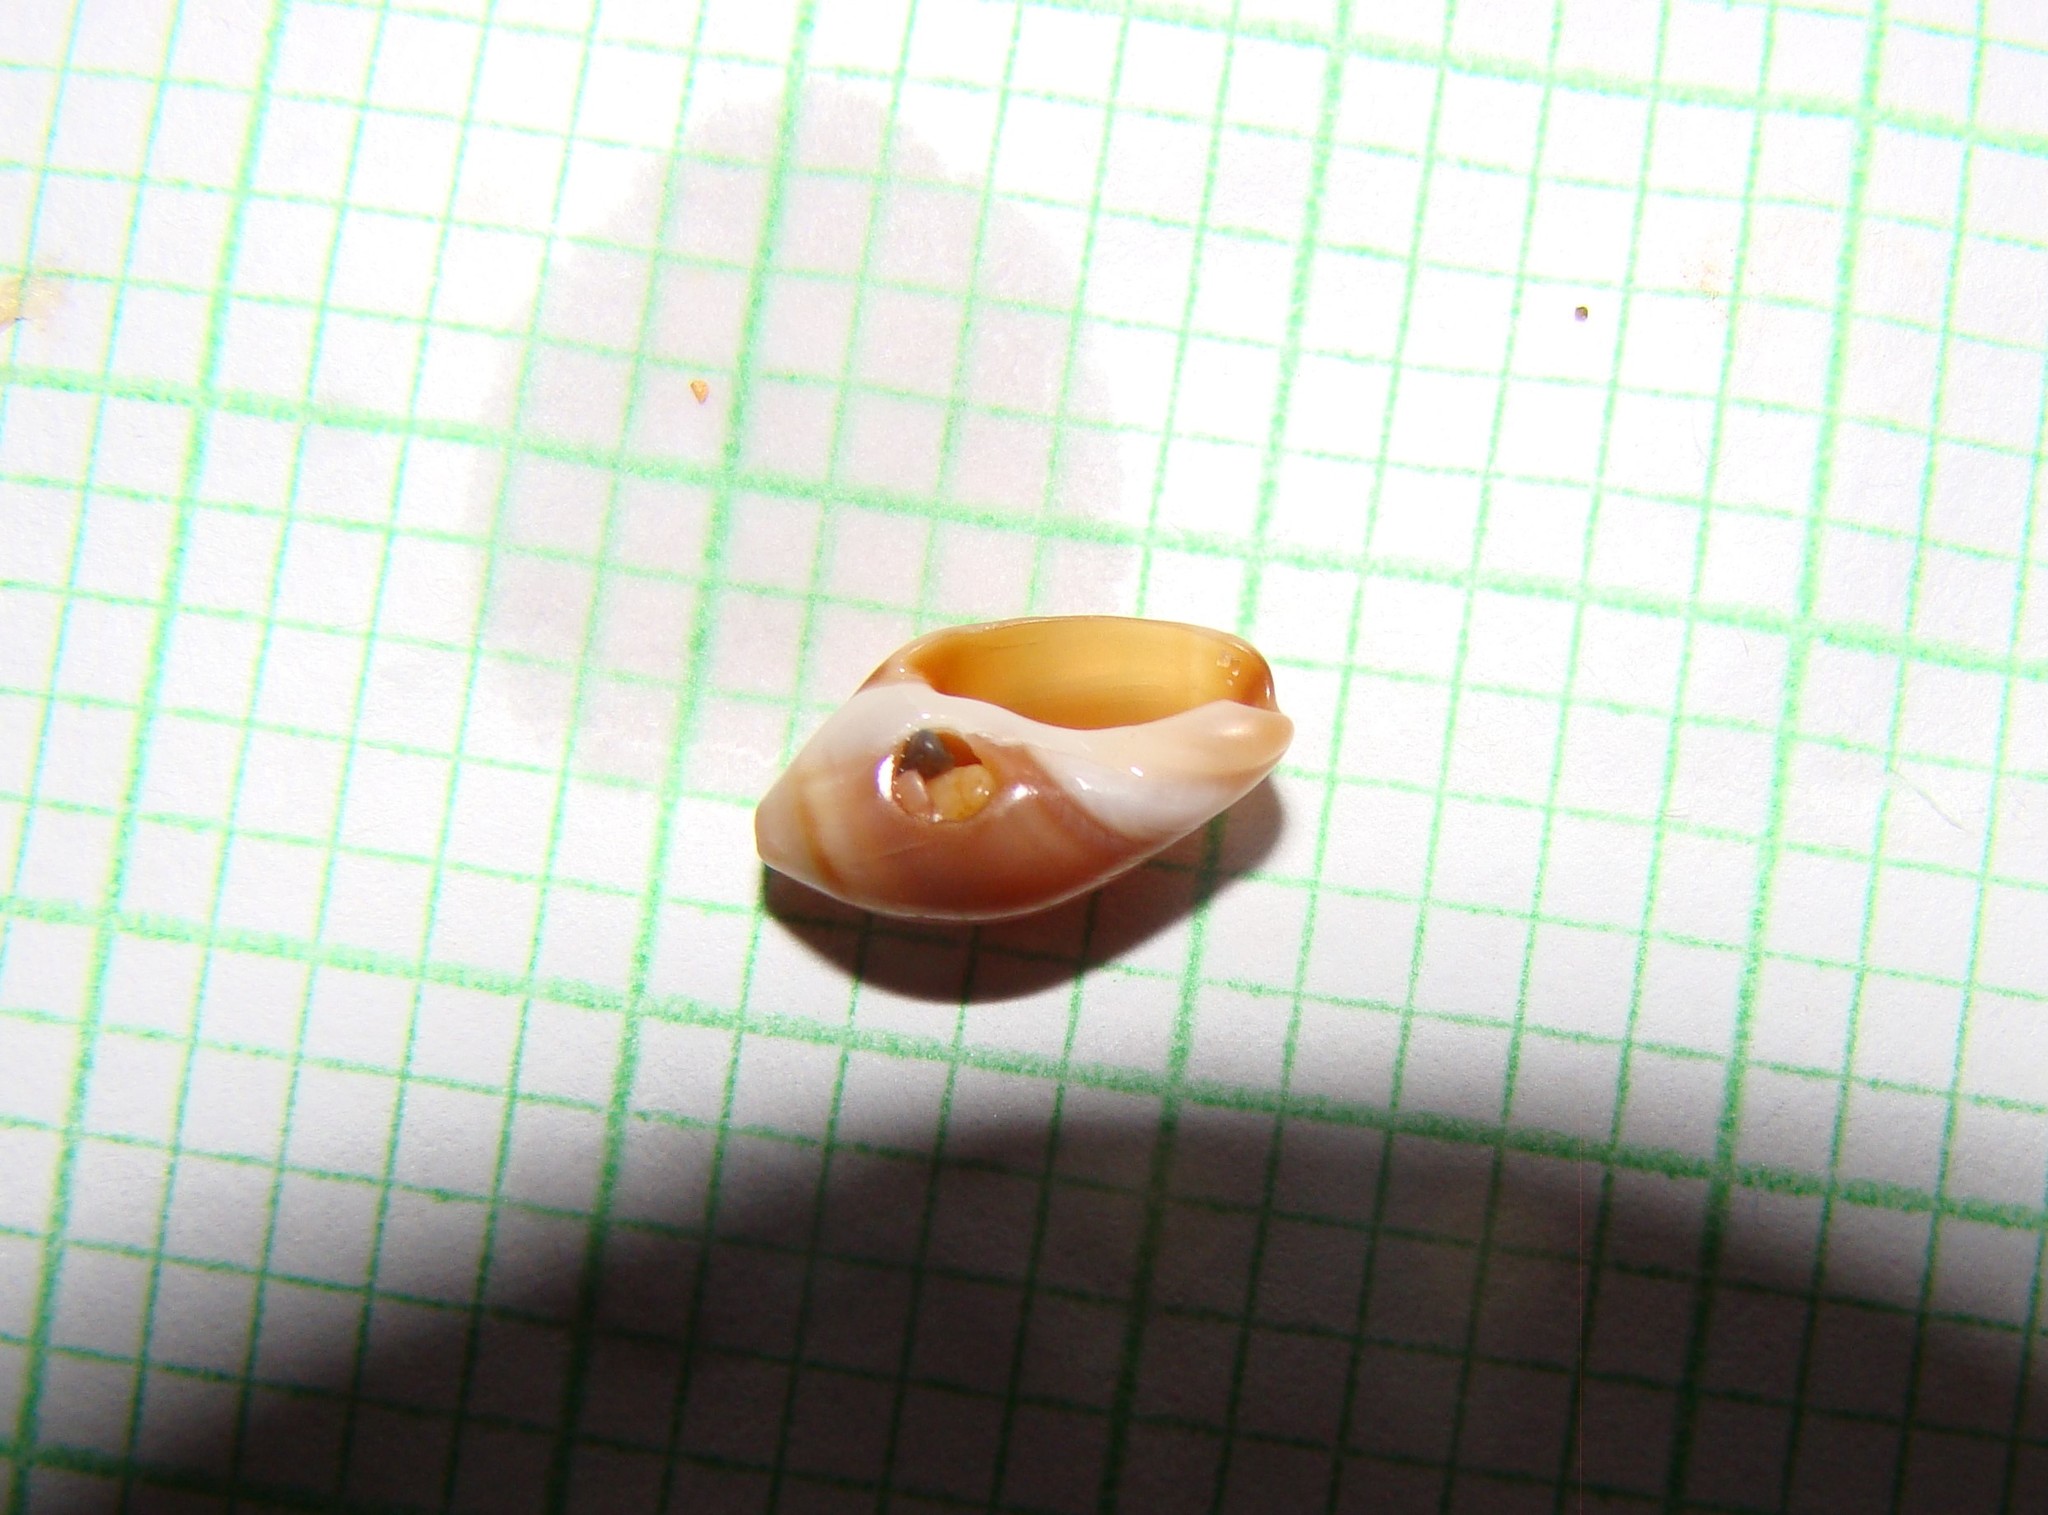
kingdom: Animalia
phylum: Mollusca
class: Gastropoda
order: Neogastropoda
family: Ancillariidae
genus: Amalda
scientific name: Amalda depressa
